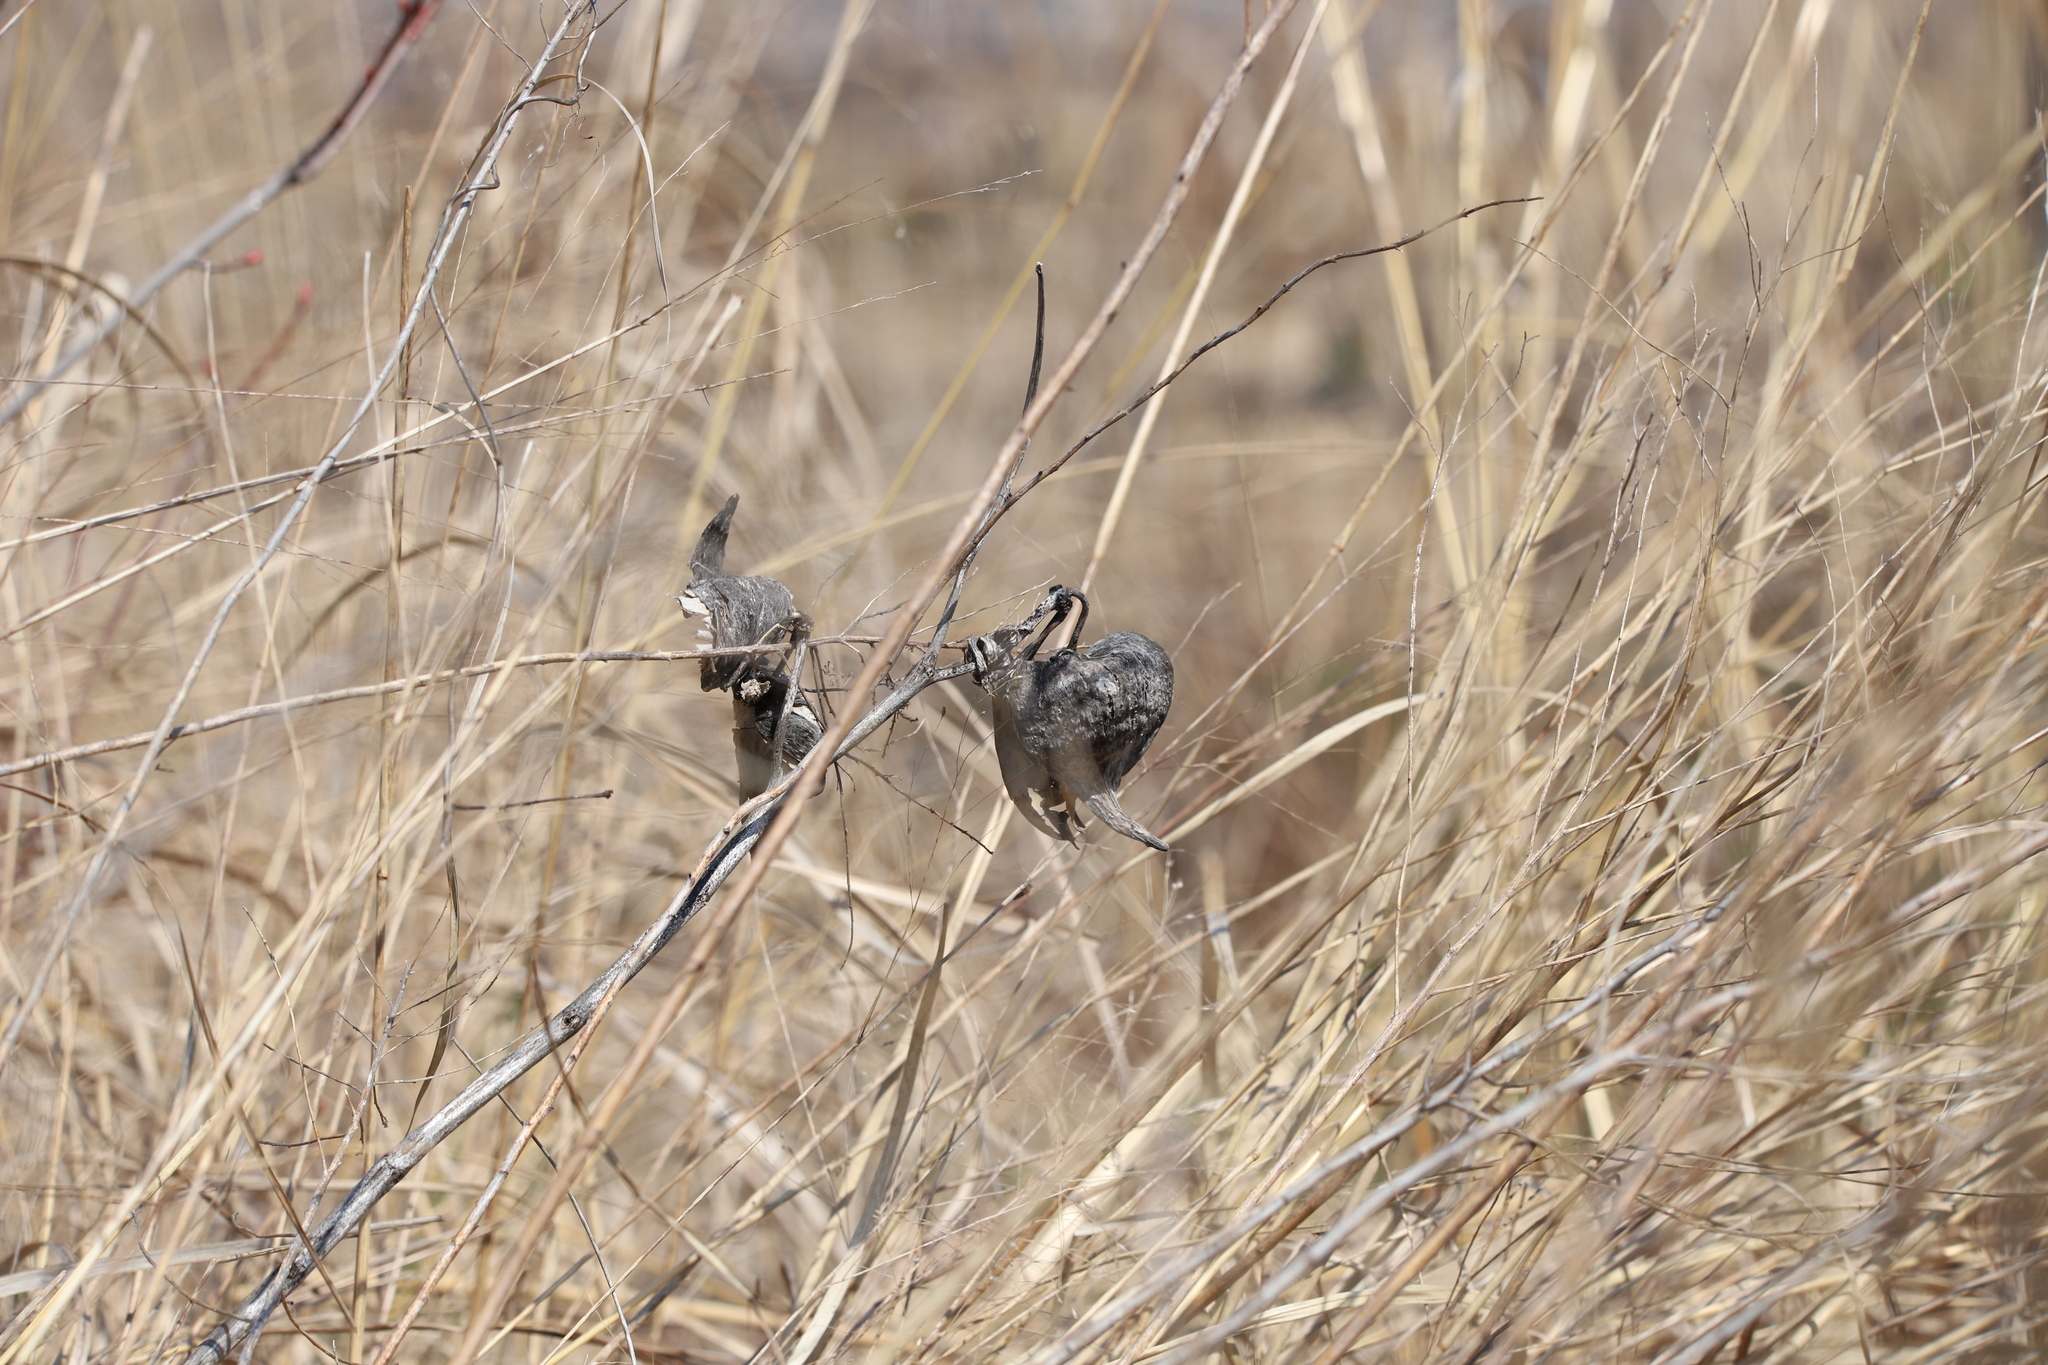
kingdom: Plantae
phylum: Tracheophyta
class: Magnoliopsida
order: Gentianales
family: Apocynaceae
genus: Asclepias
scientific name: Asclepias syriaca
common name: Common milkweed
